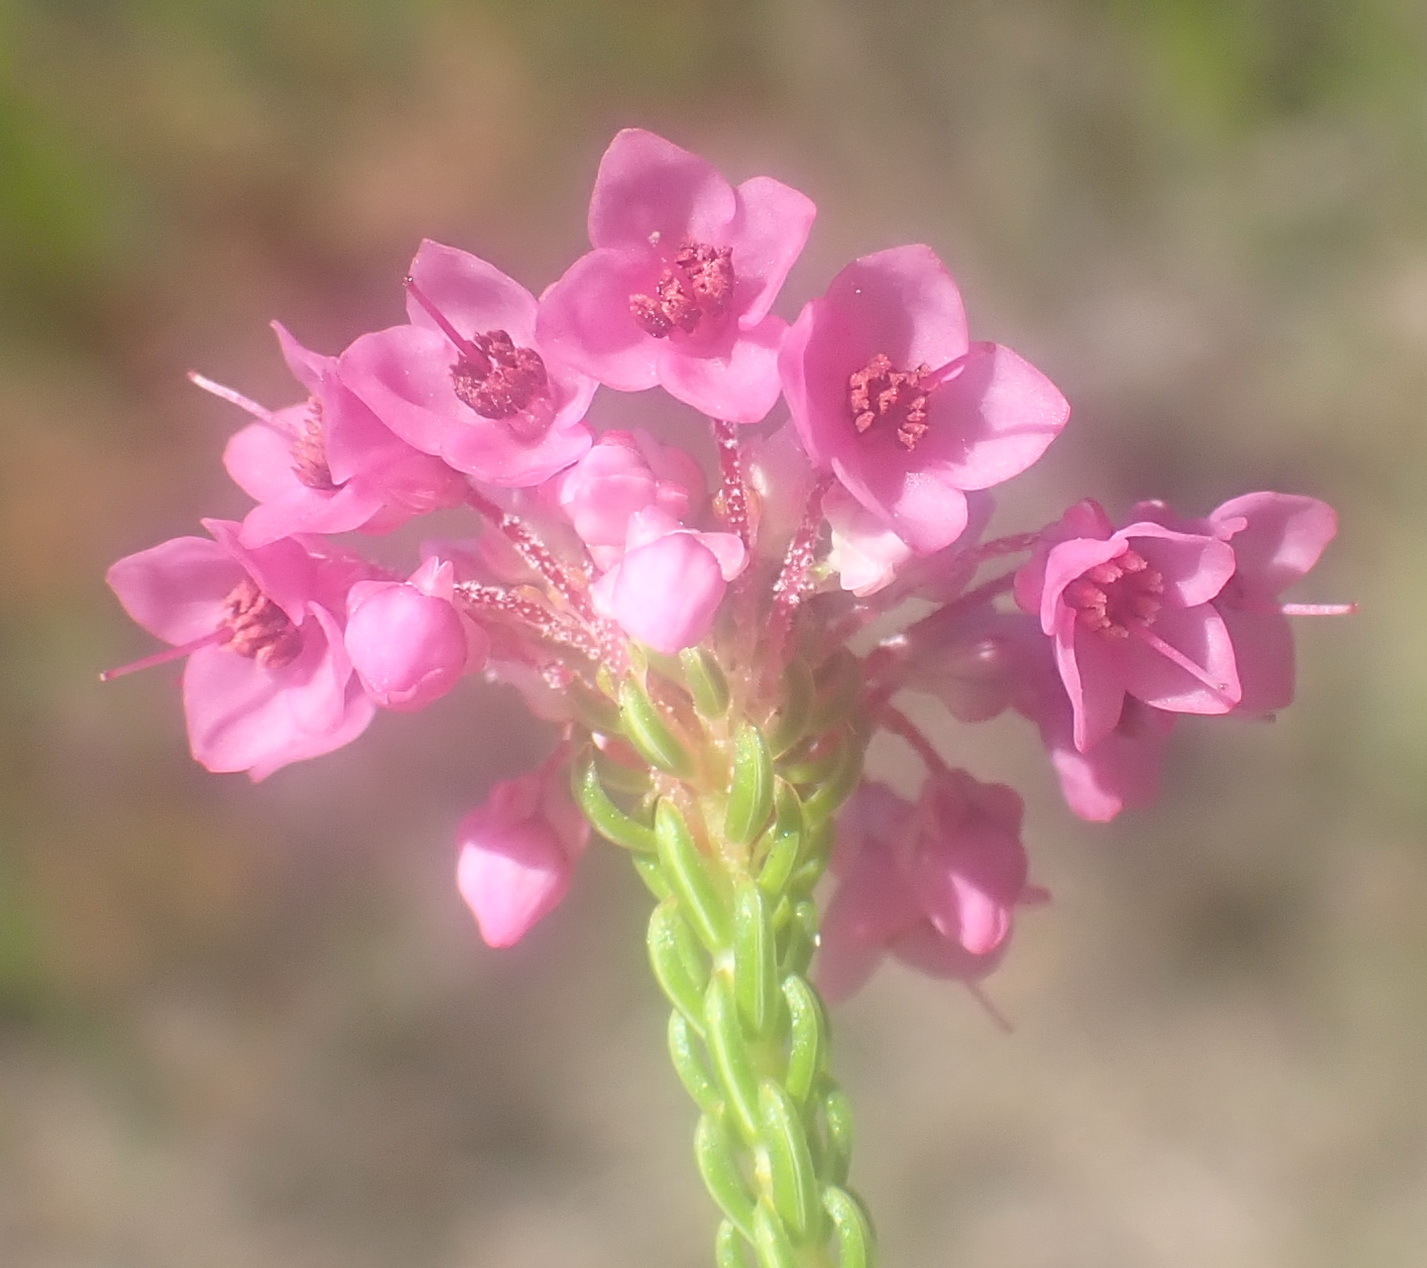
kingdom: Plantae
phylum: Tracheophyta
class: Magnoliopsida
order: Ericales
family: Ericaceae
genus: Erica
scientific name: Erica seriphiifolia
